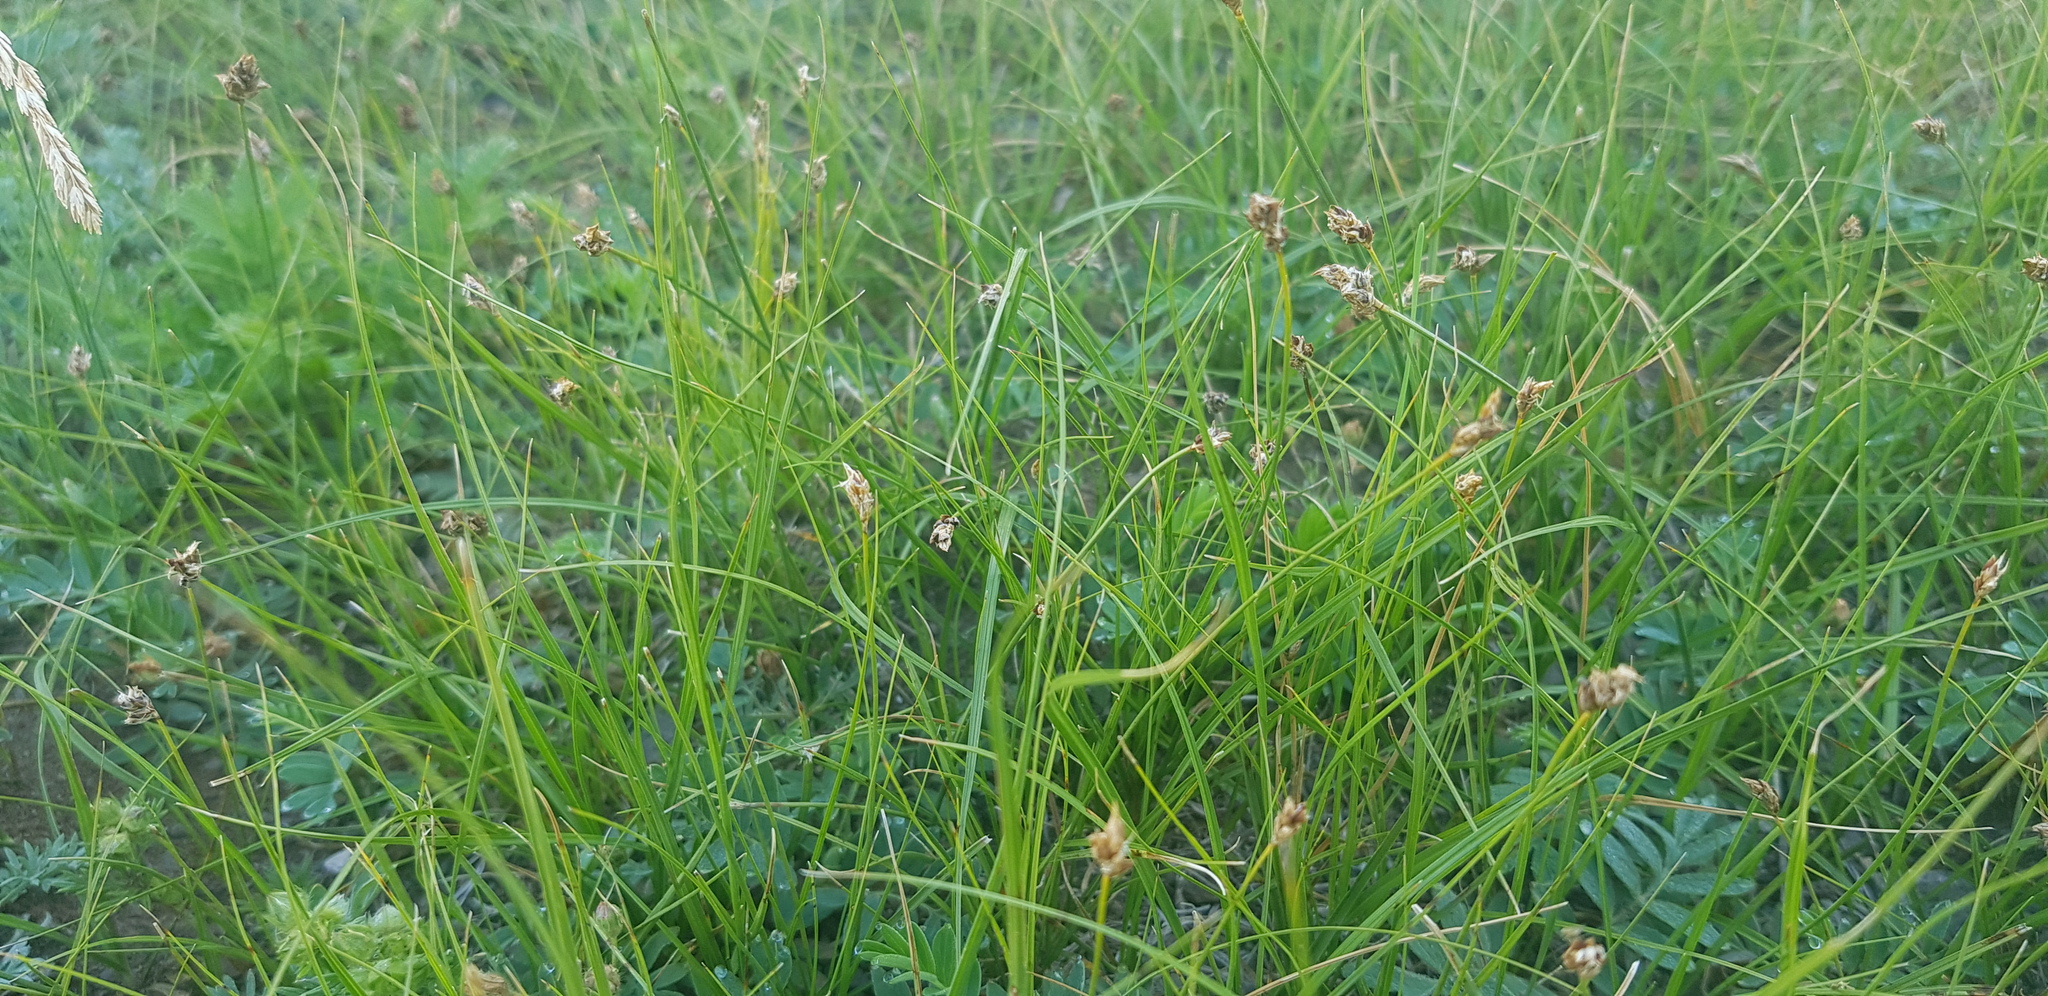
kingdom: Plantae
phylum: Tracheophyta
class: Liliopsida
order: Poales
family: Cyperaceae
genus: Carex
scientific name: Carex praecox
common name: Early sedge
